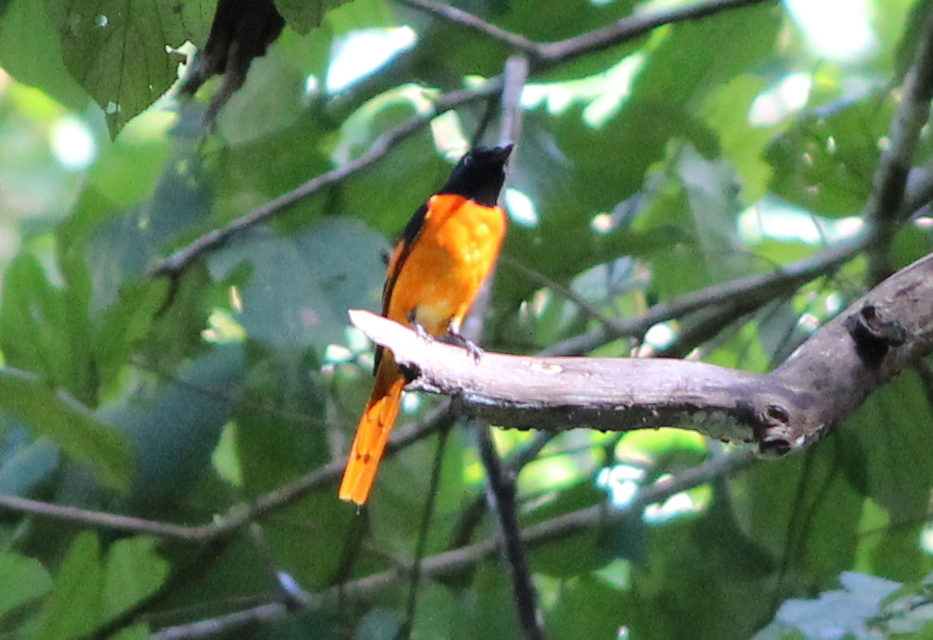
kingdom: Animalia
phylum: Chordata
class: Aves
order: Passeriformes
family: Campephagidae
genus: Pericrocotus
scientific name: Pericrocotus flammeus
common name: Orange minivet
